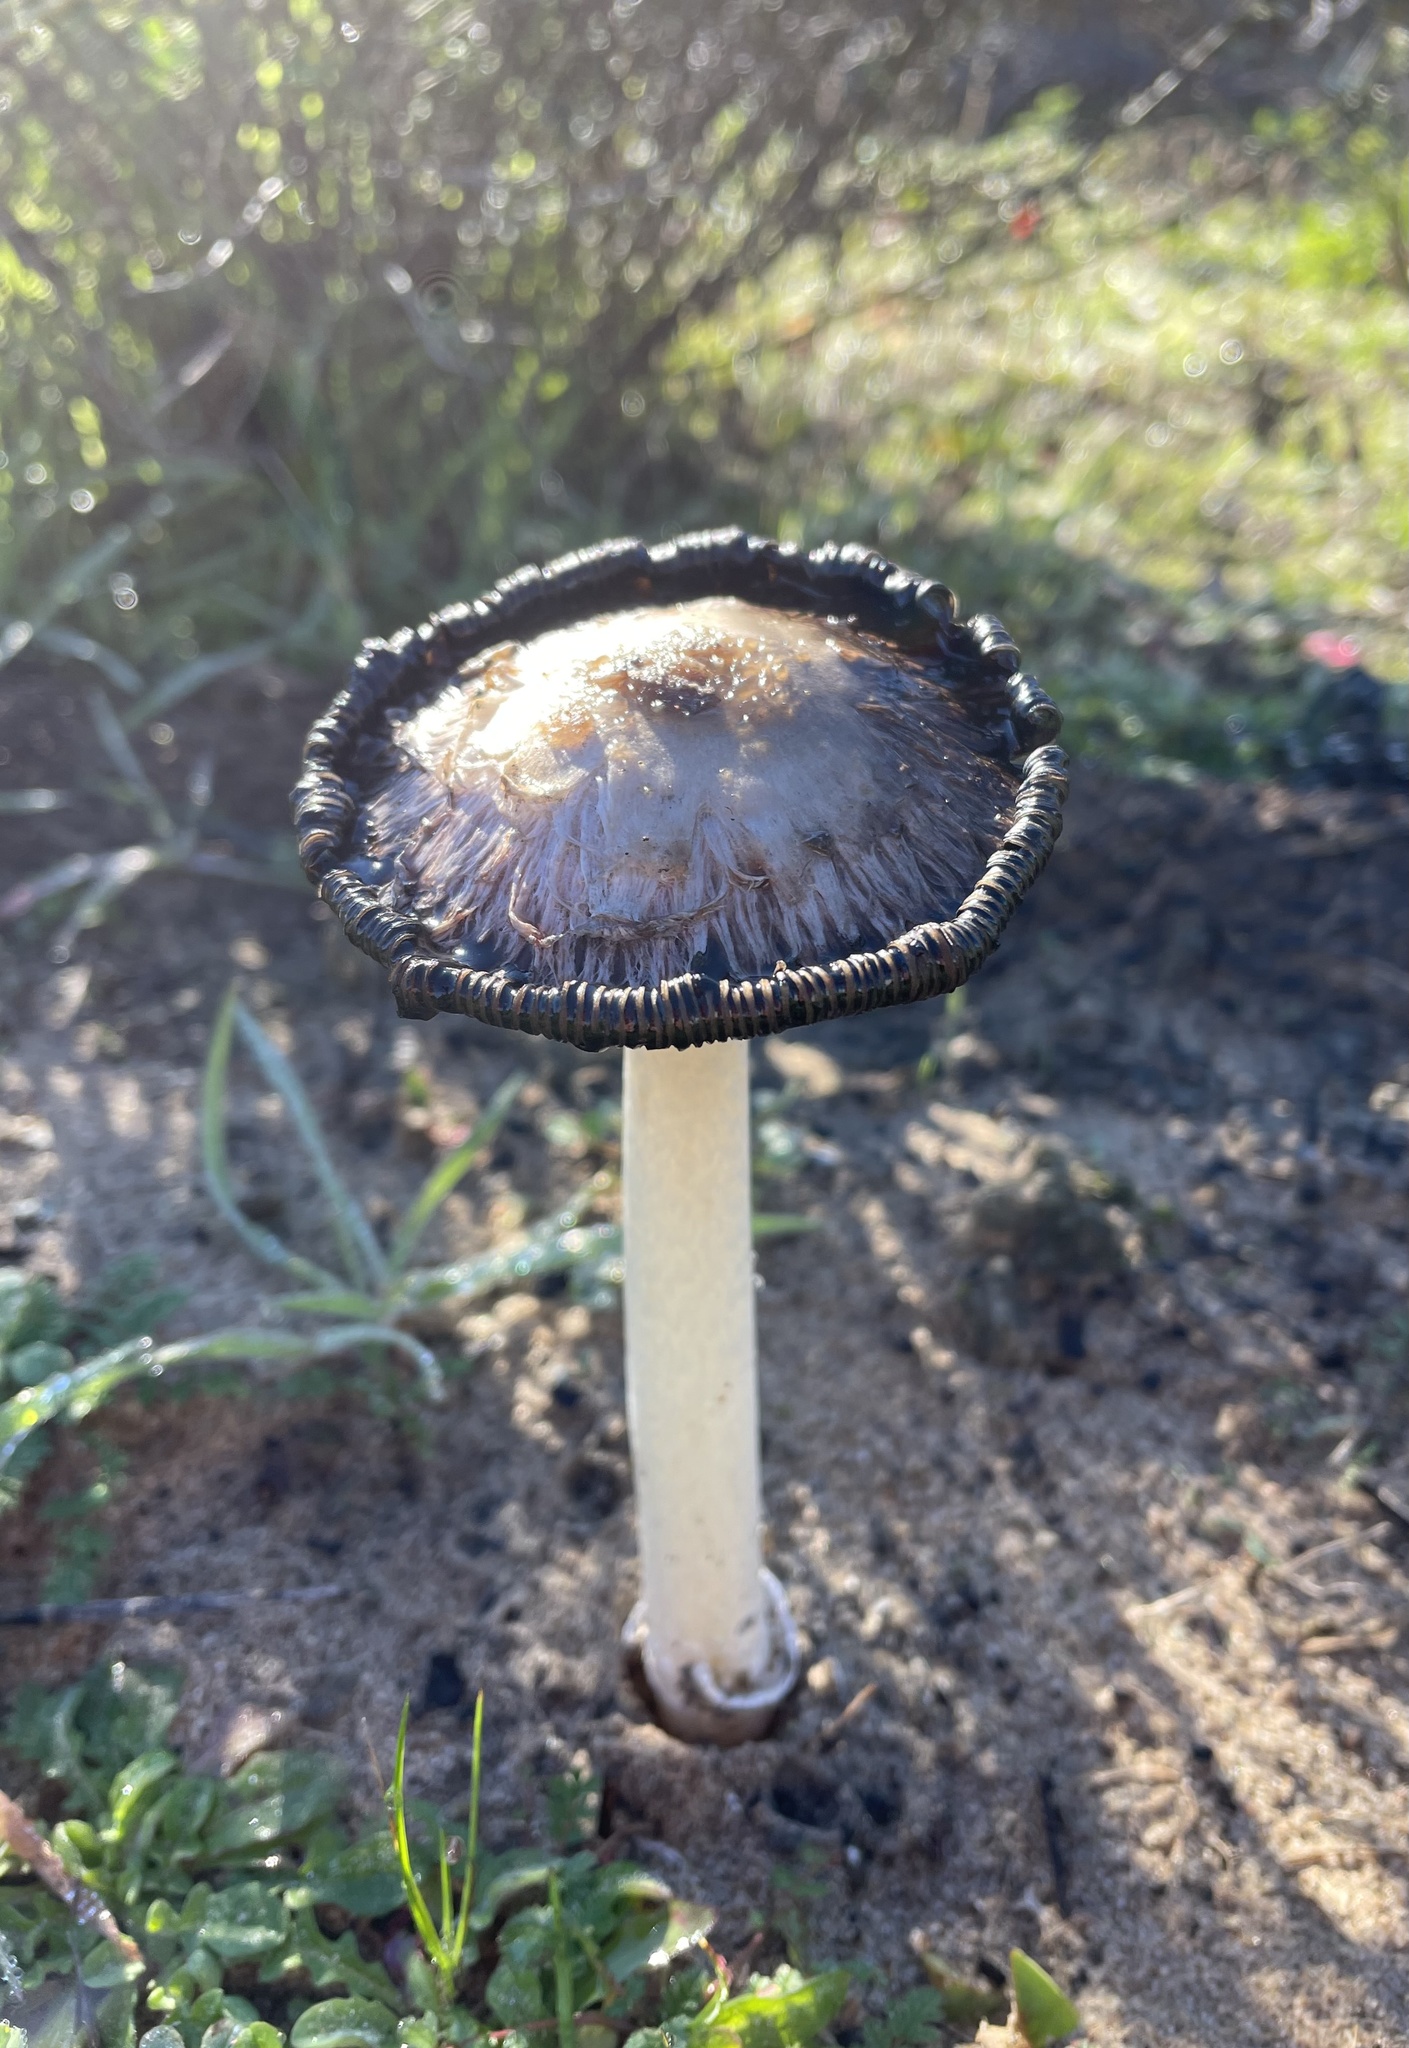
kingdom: Fungi
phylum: Basidiomycota
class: Agaricomycetes
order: Agaricales
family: Agaricaceae
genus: Coprinus
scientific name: Coprinus comatus
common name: Lawyer's wig
